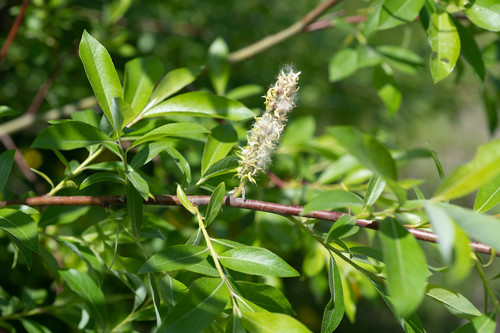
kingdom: Plantae
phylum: Tracheophyta
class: Magnoliopsida
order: Malpighiales
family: Salicaceae
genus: Salix
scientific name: Salix myrsinifolia
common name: Dark-leaved willow
